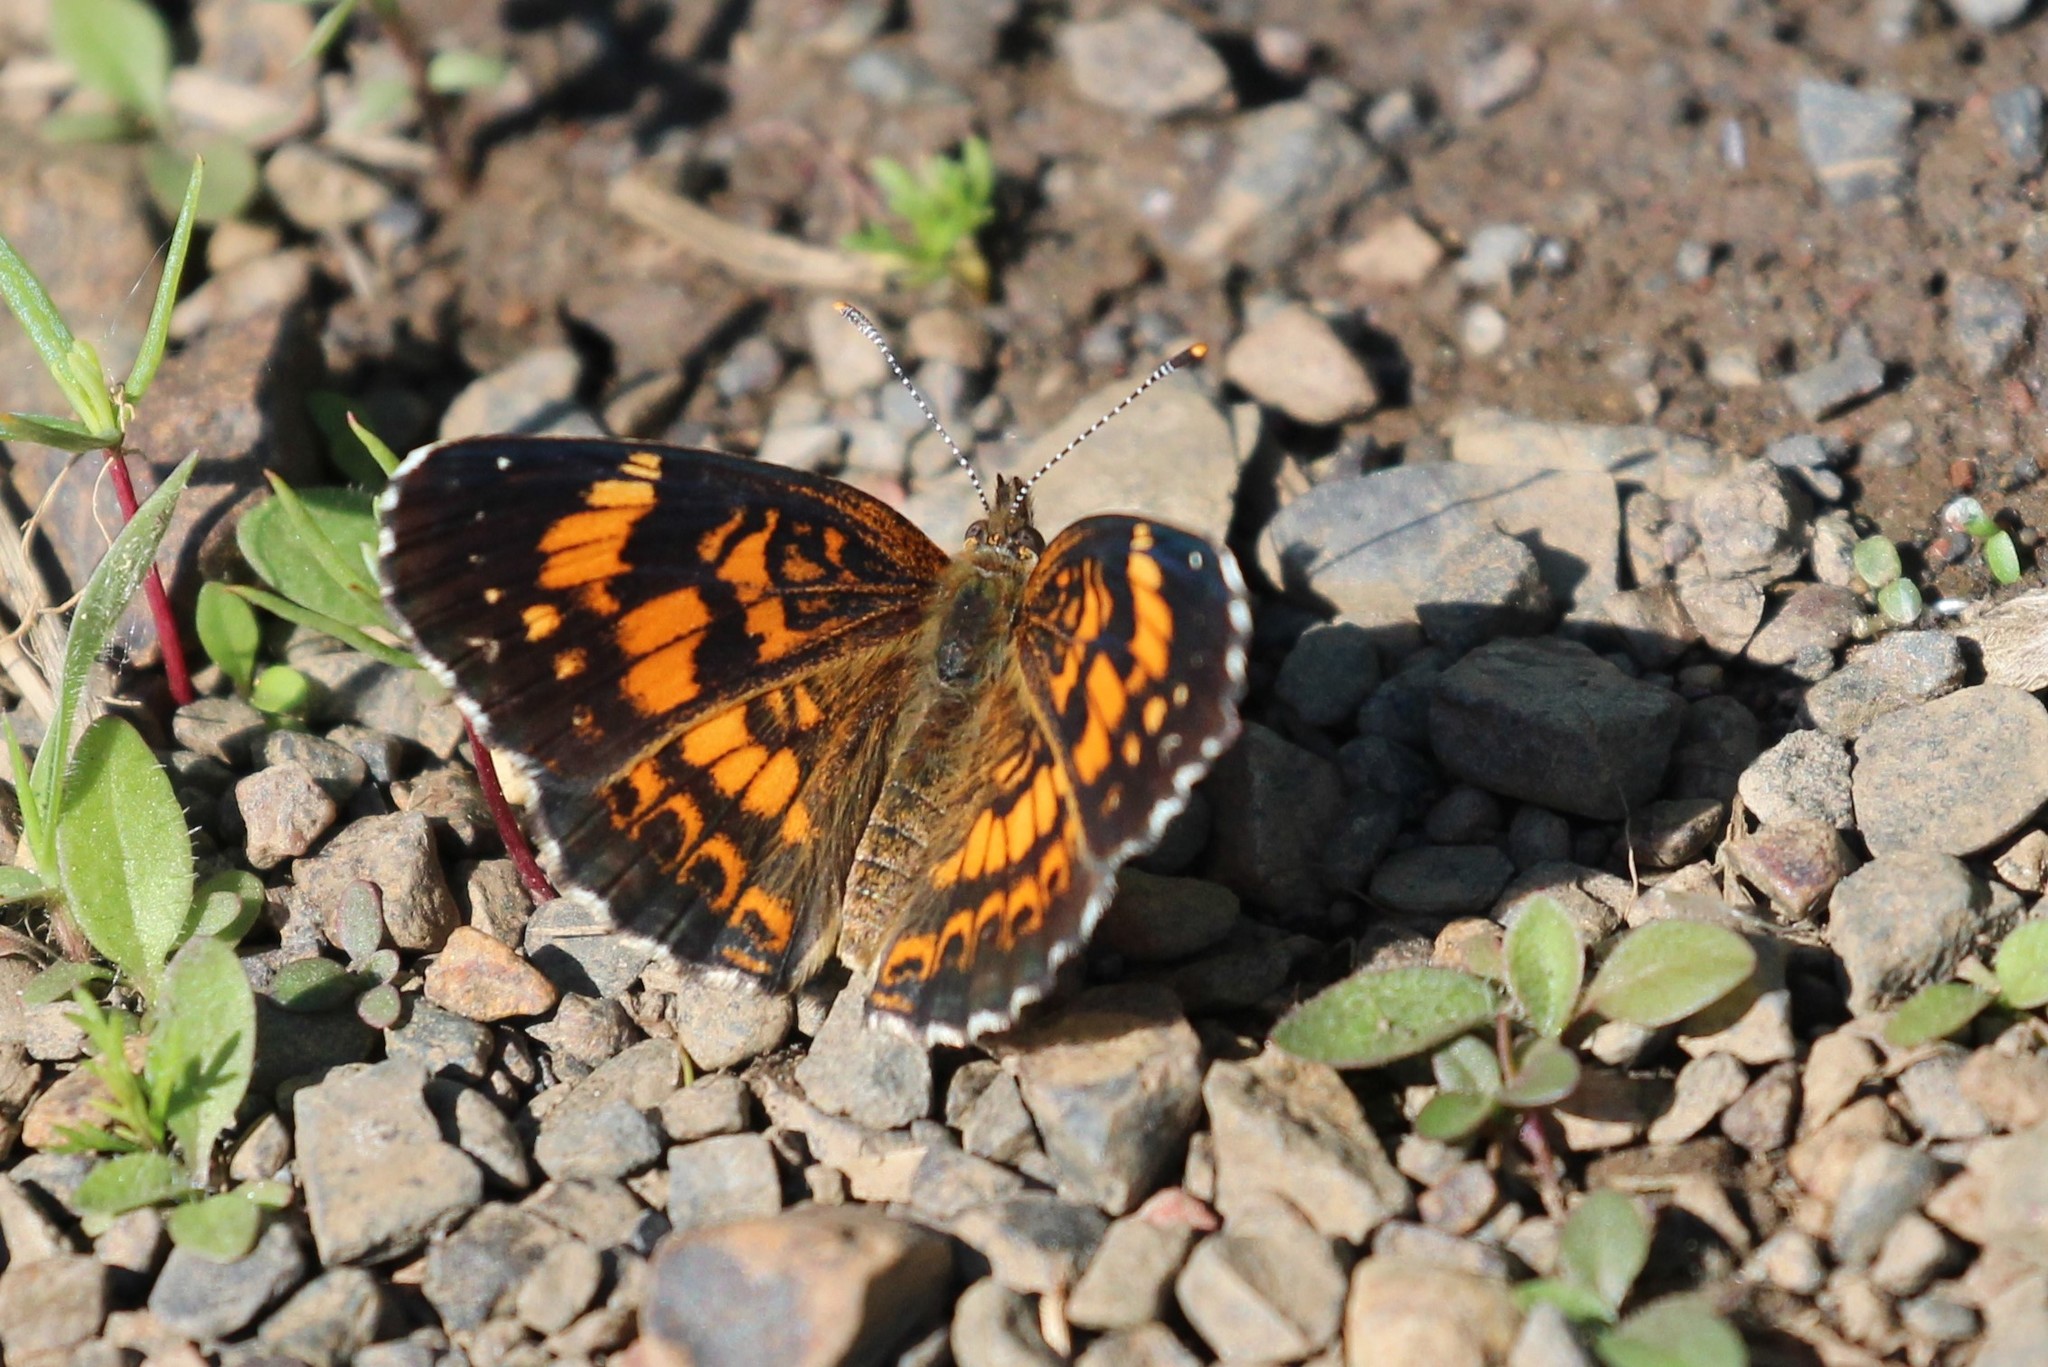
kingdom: Animalia
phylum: Arthropoda
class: Insecta
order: Lepidoptera
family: Nymphalidae
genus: Chlosyne
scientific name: Chlosyne nycteis
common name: Silvery checkerspot
